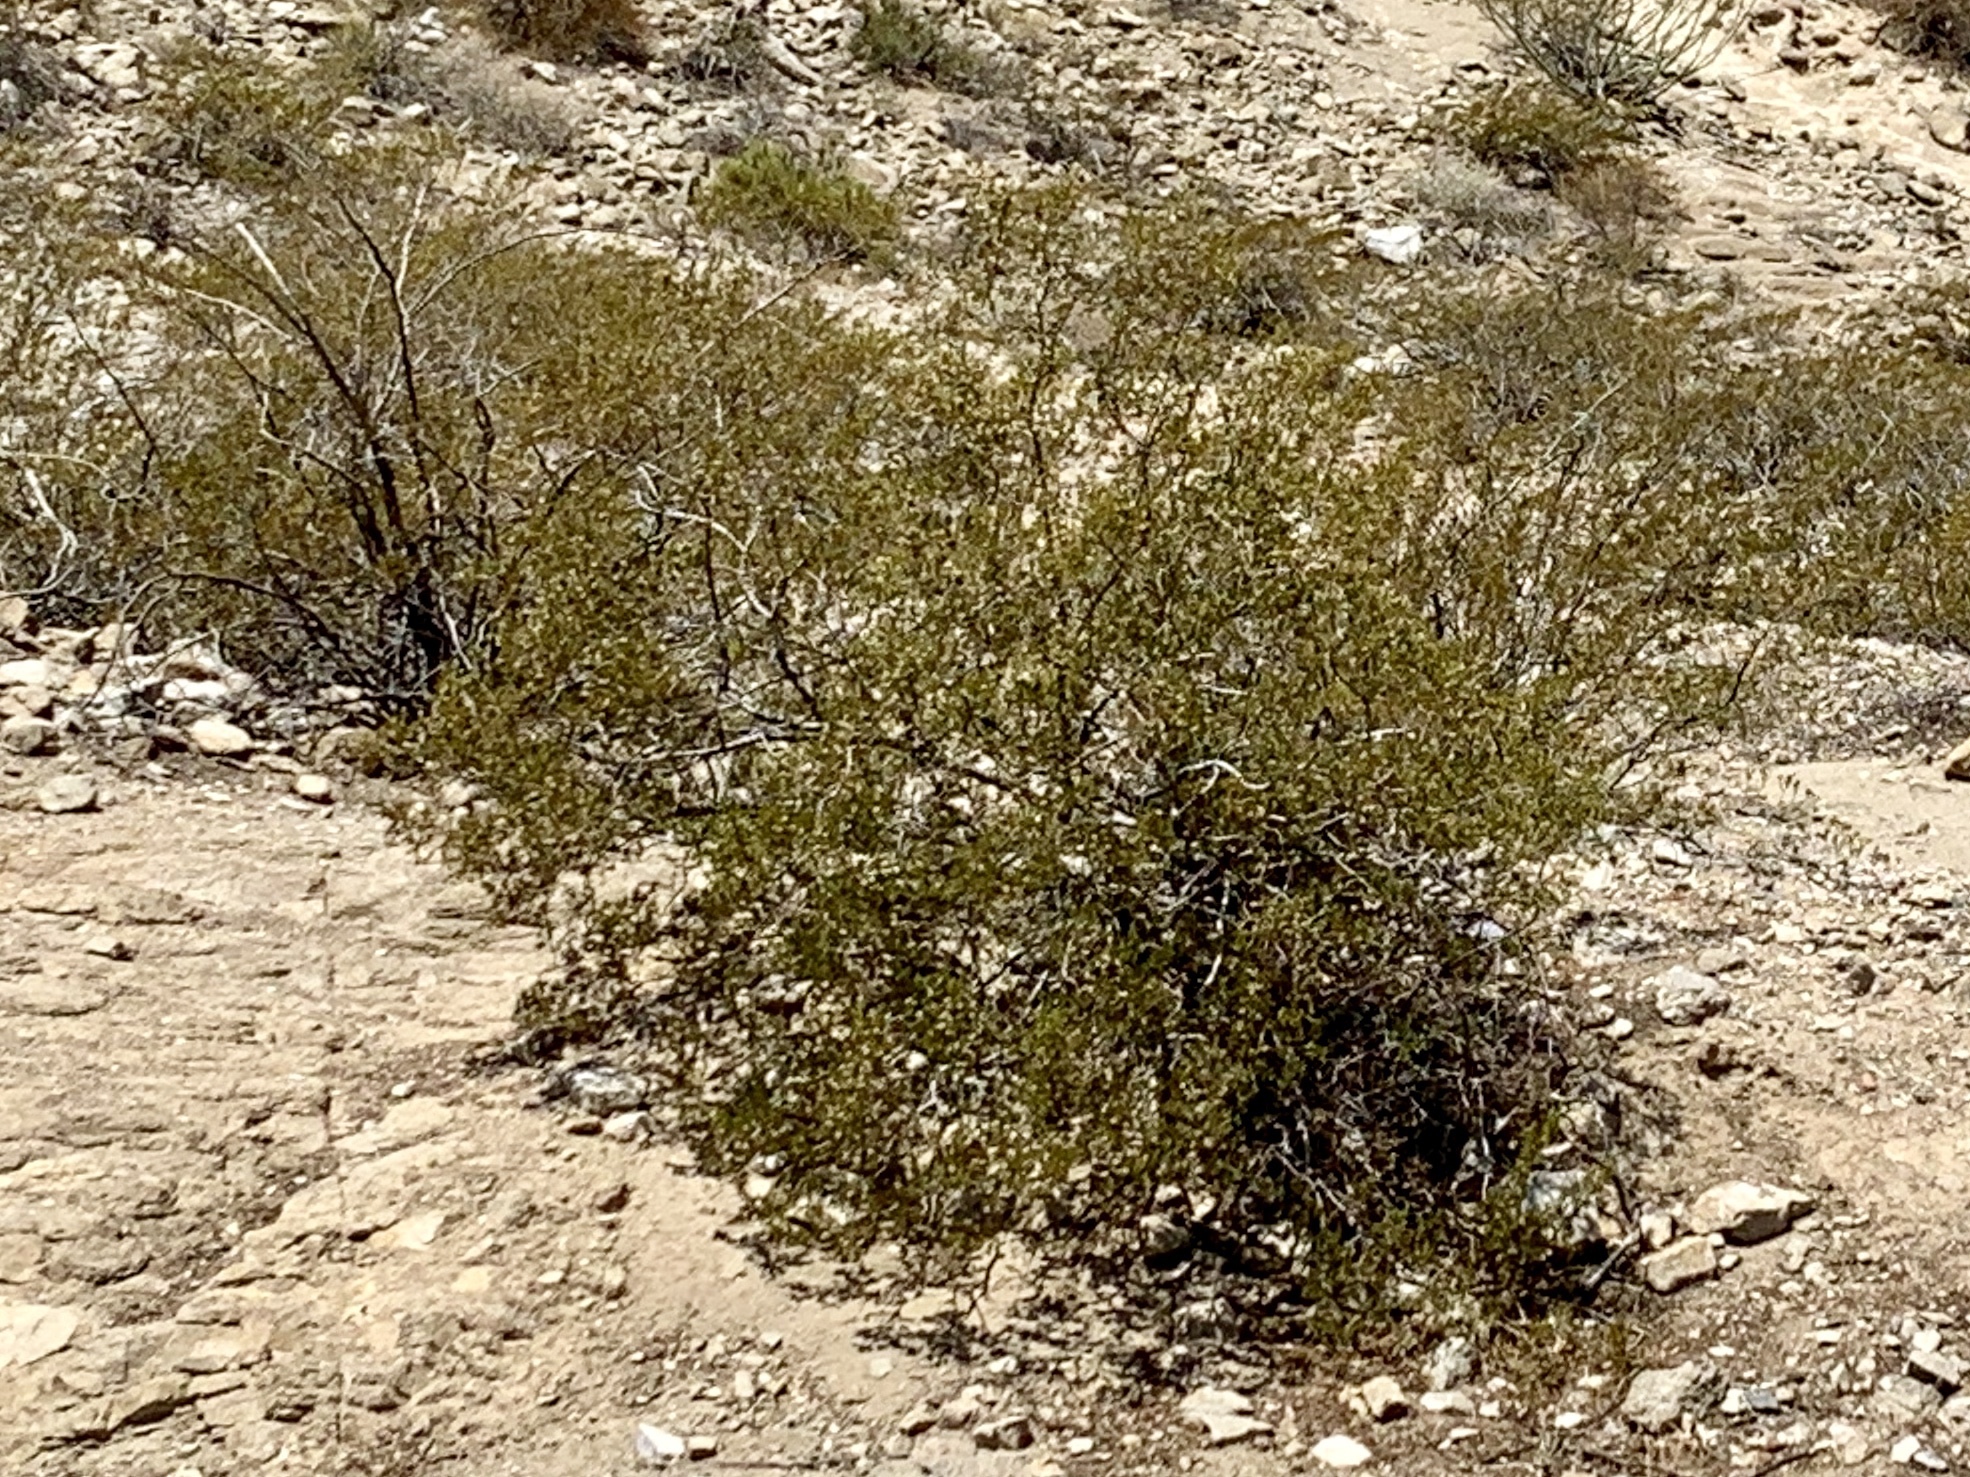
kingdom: Plantae
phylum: Tracheophyta
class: Magnoliopsida
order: Zygophyllales
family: Zygophyllaceae
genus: Larrea
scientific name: Larrea tridentata
